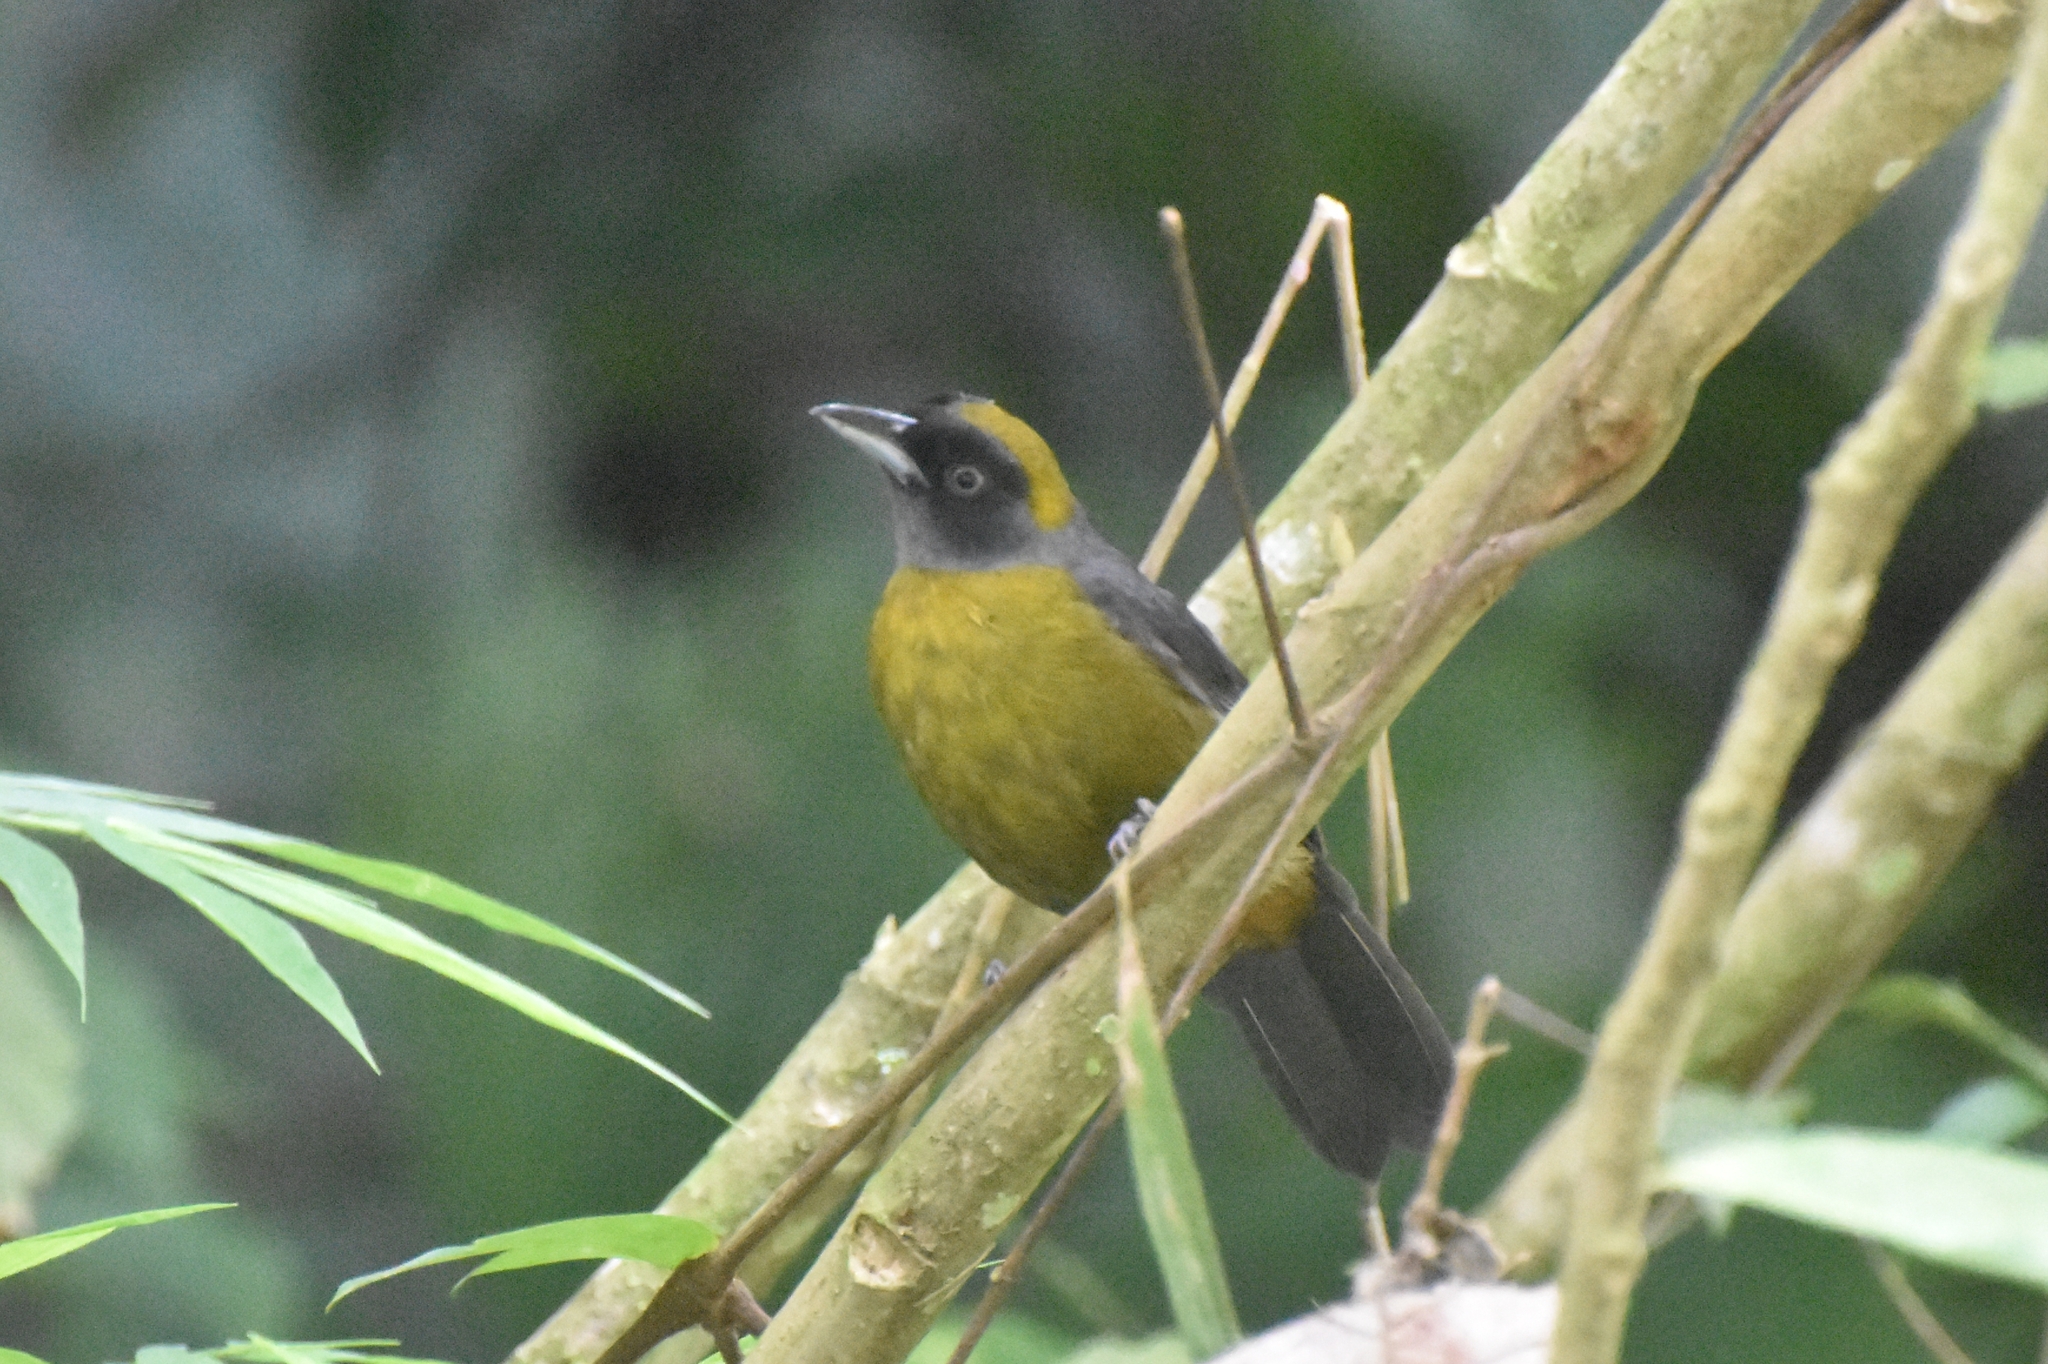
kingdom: Animalia
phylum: Chordata
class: Aves
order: Passeriformes
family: Mitrospingidae
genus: Mitrospingus
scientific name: Mitrospingus cassinii
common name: Dusky-faced tanager
